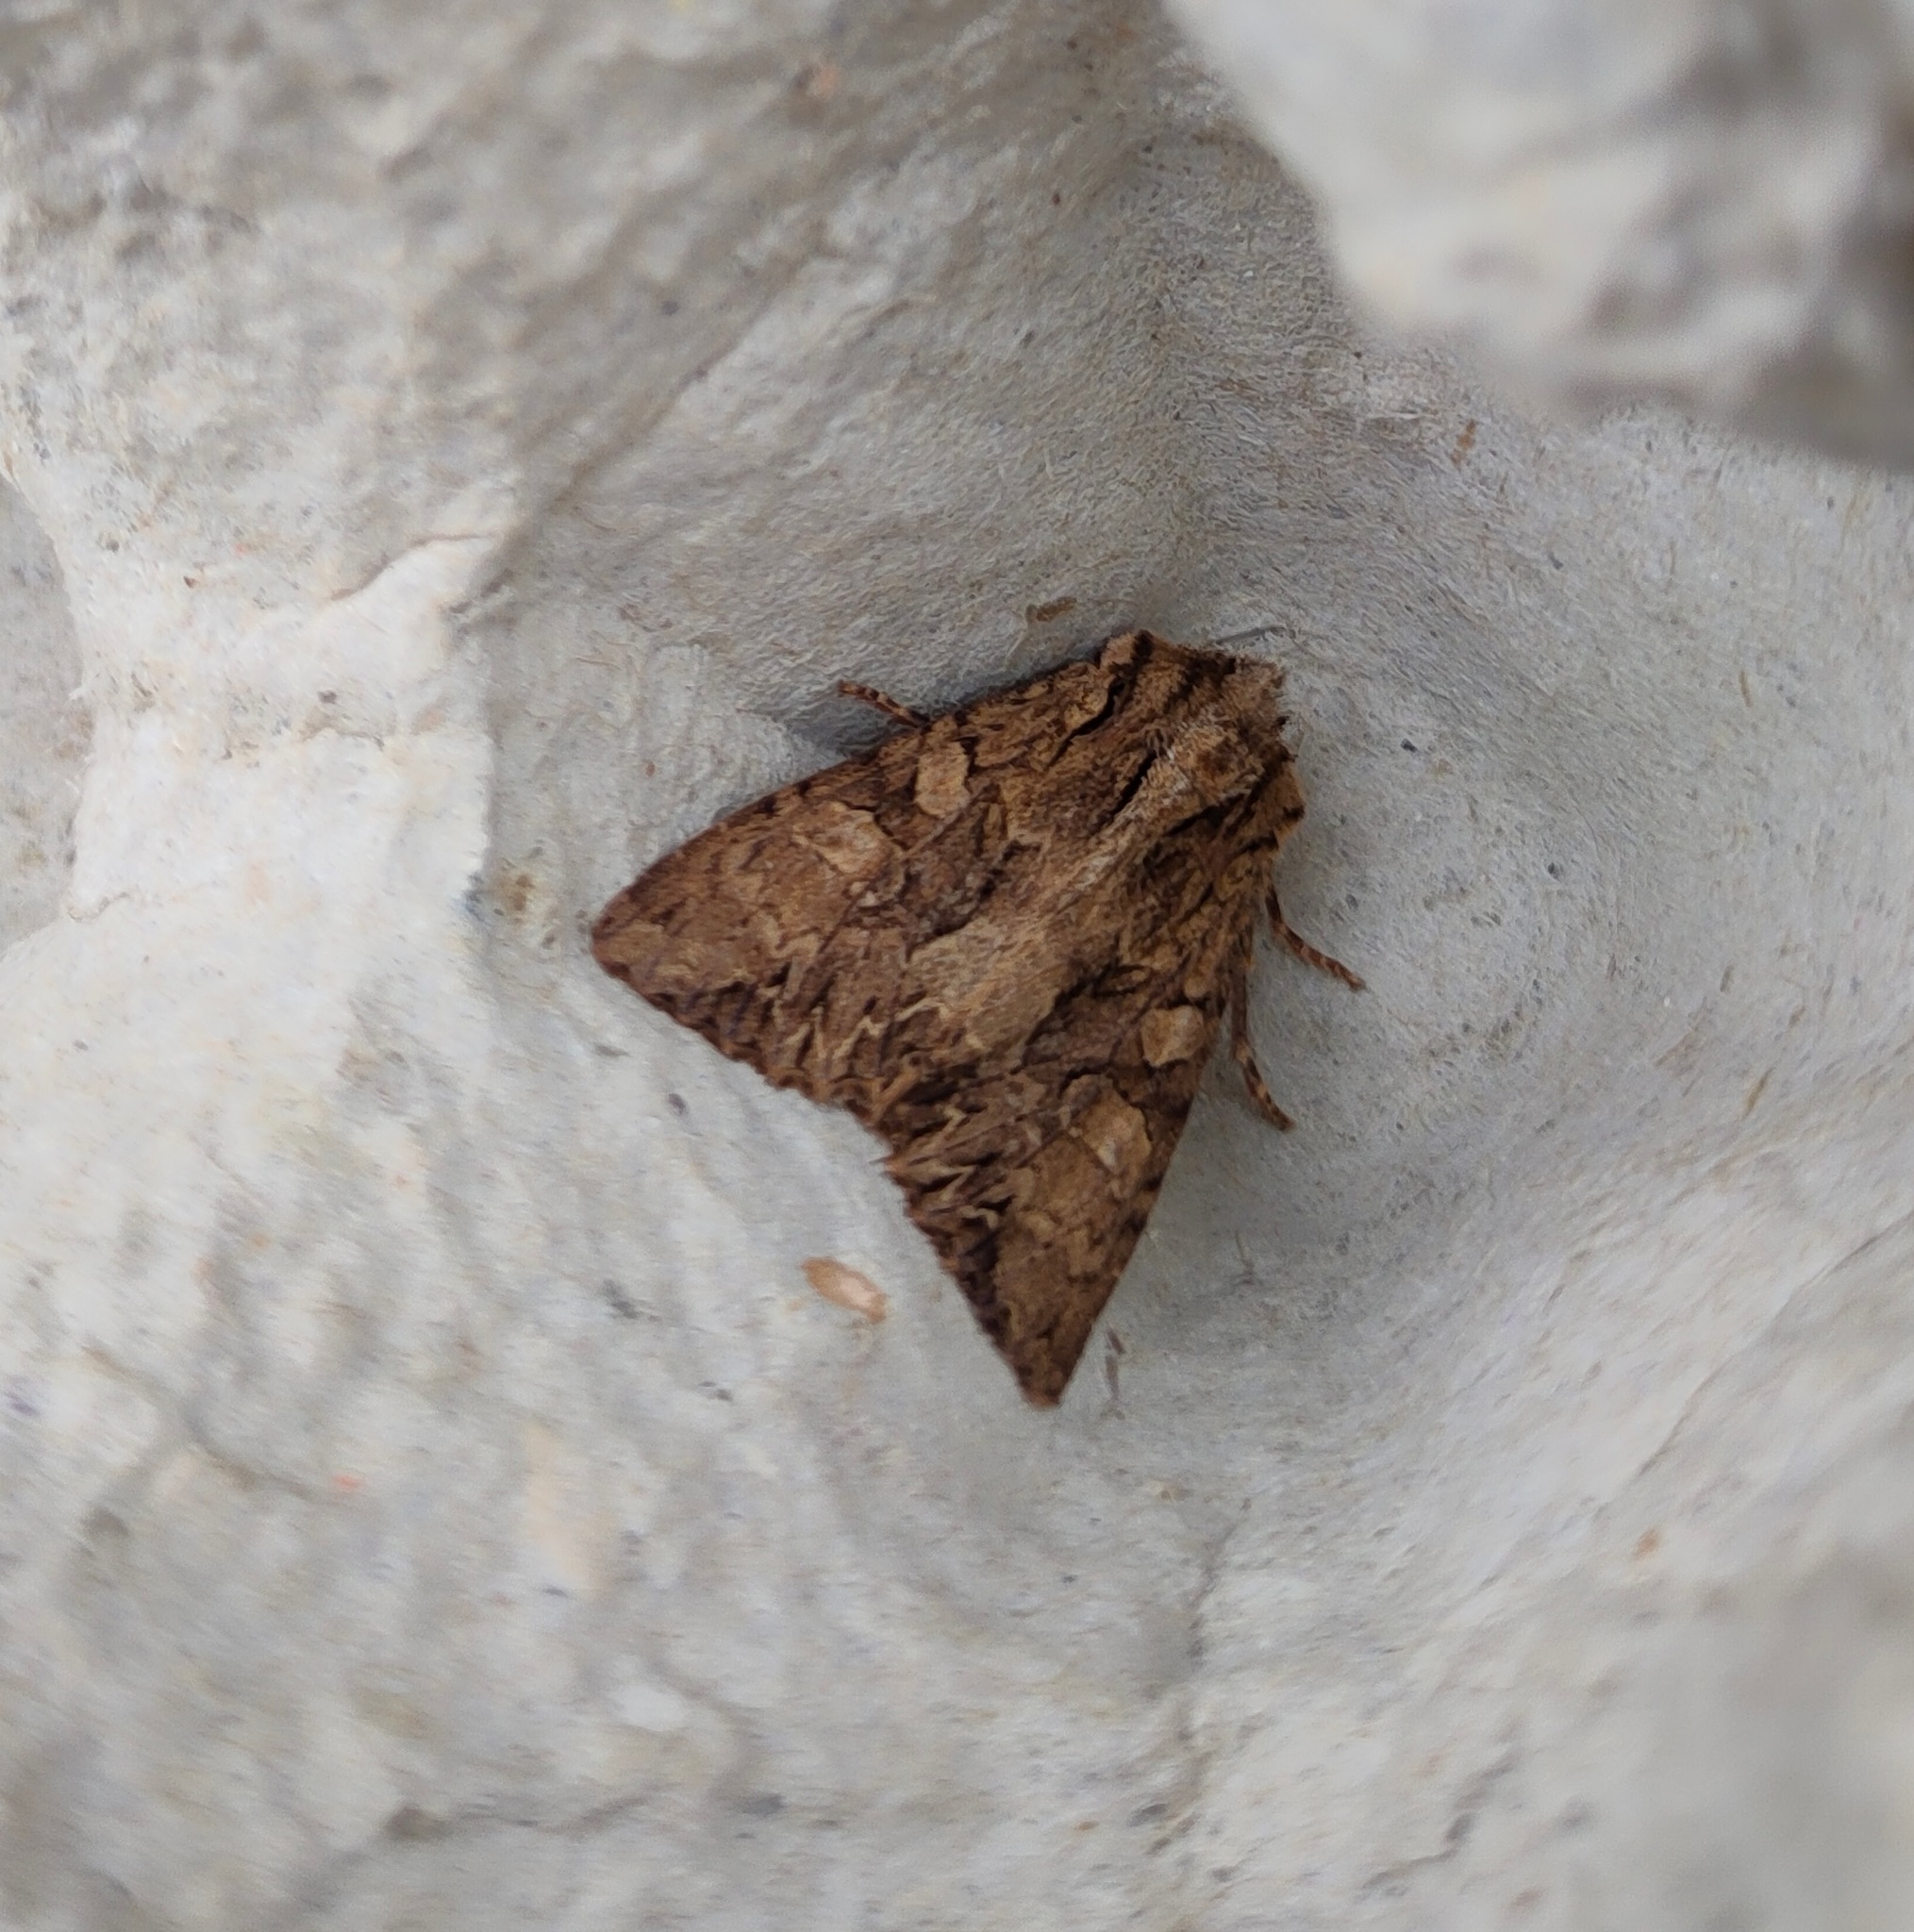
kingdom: Animalia
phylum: Arthropoda
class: Insecta
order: Lepidoptera
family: Noctuidae
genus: Apamea
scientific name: Apamea monoglypha
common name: Dark arches
